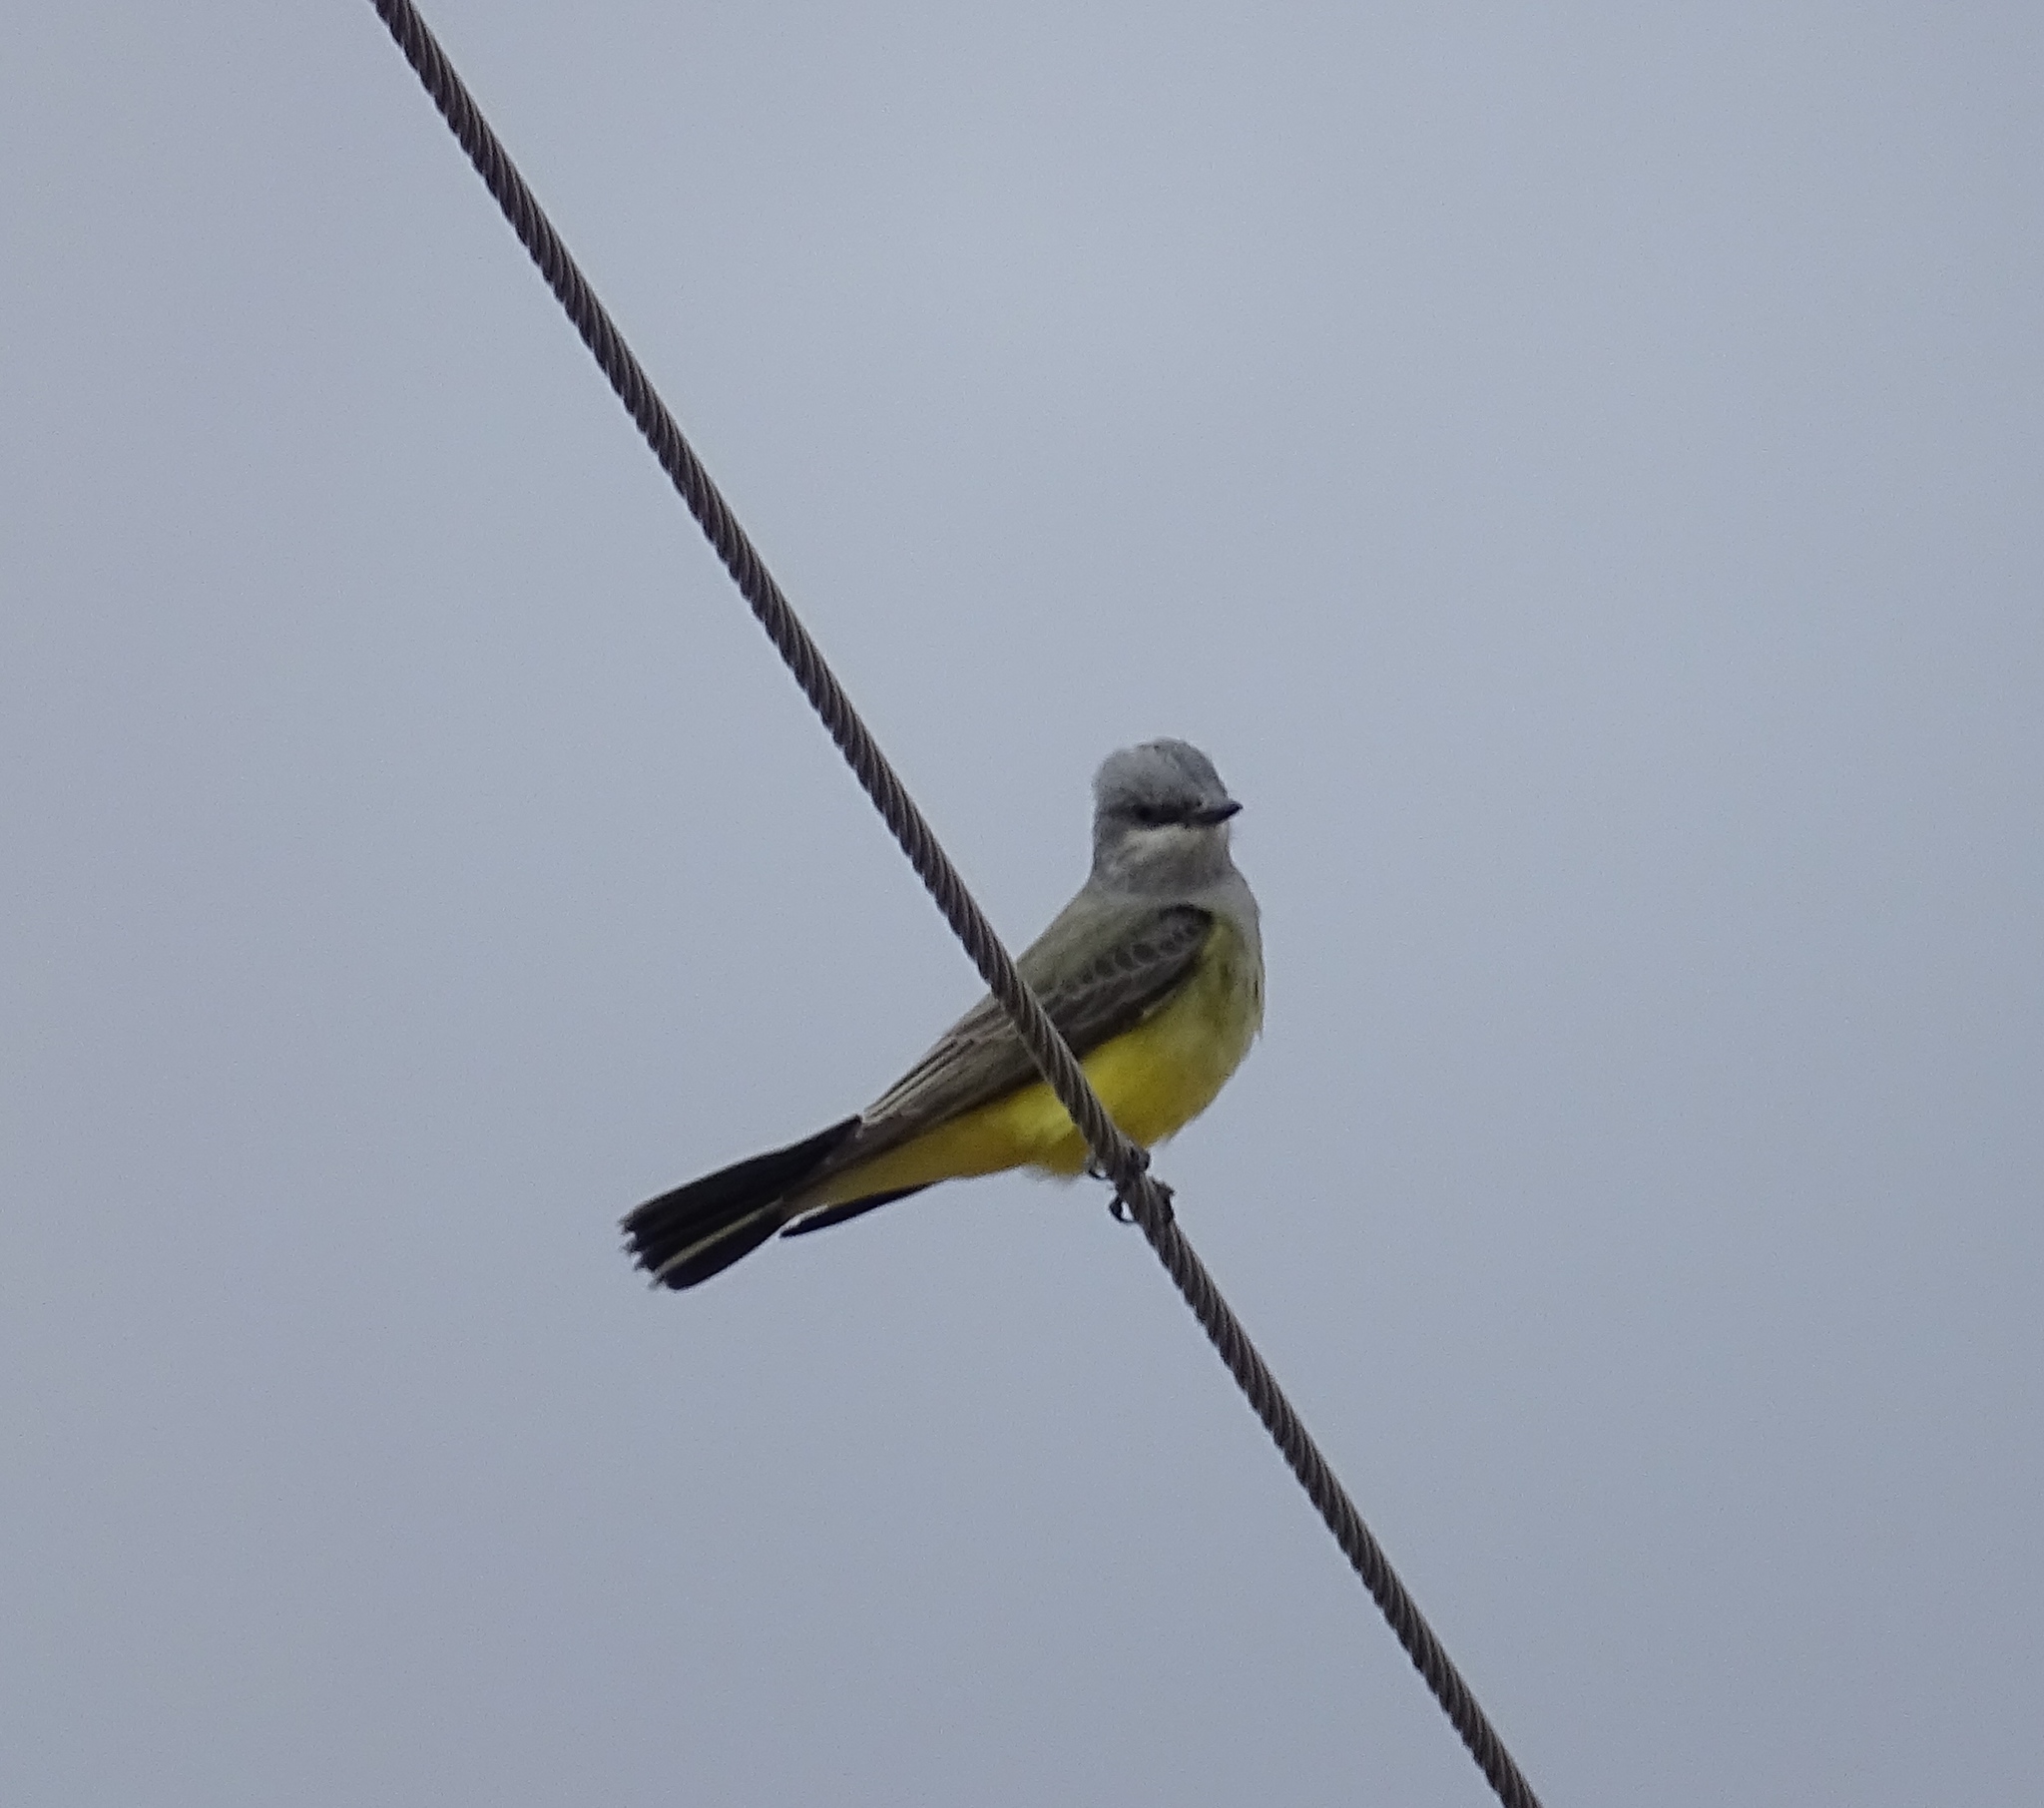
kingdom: Animalia
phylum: Chordata
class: Aves
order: Passeriformes
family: Tyrannidae
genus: Tyrannus
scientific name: Tyrannus verticalis
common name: Western kingbird
